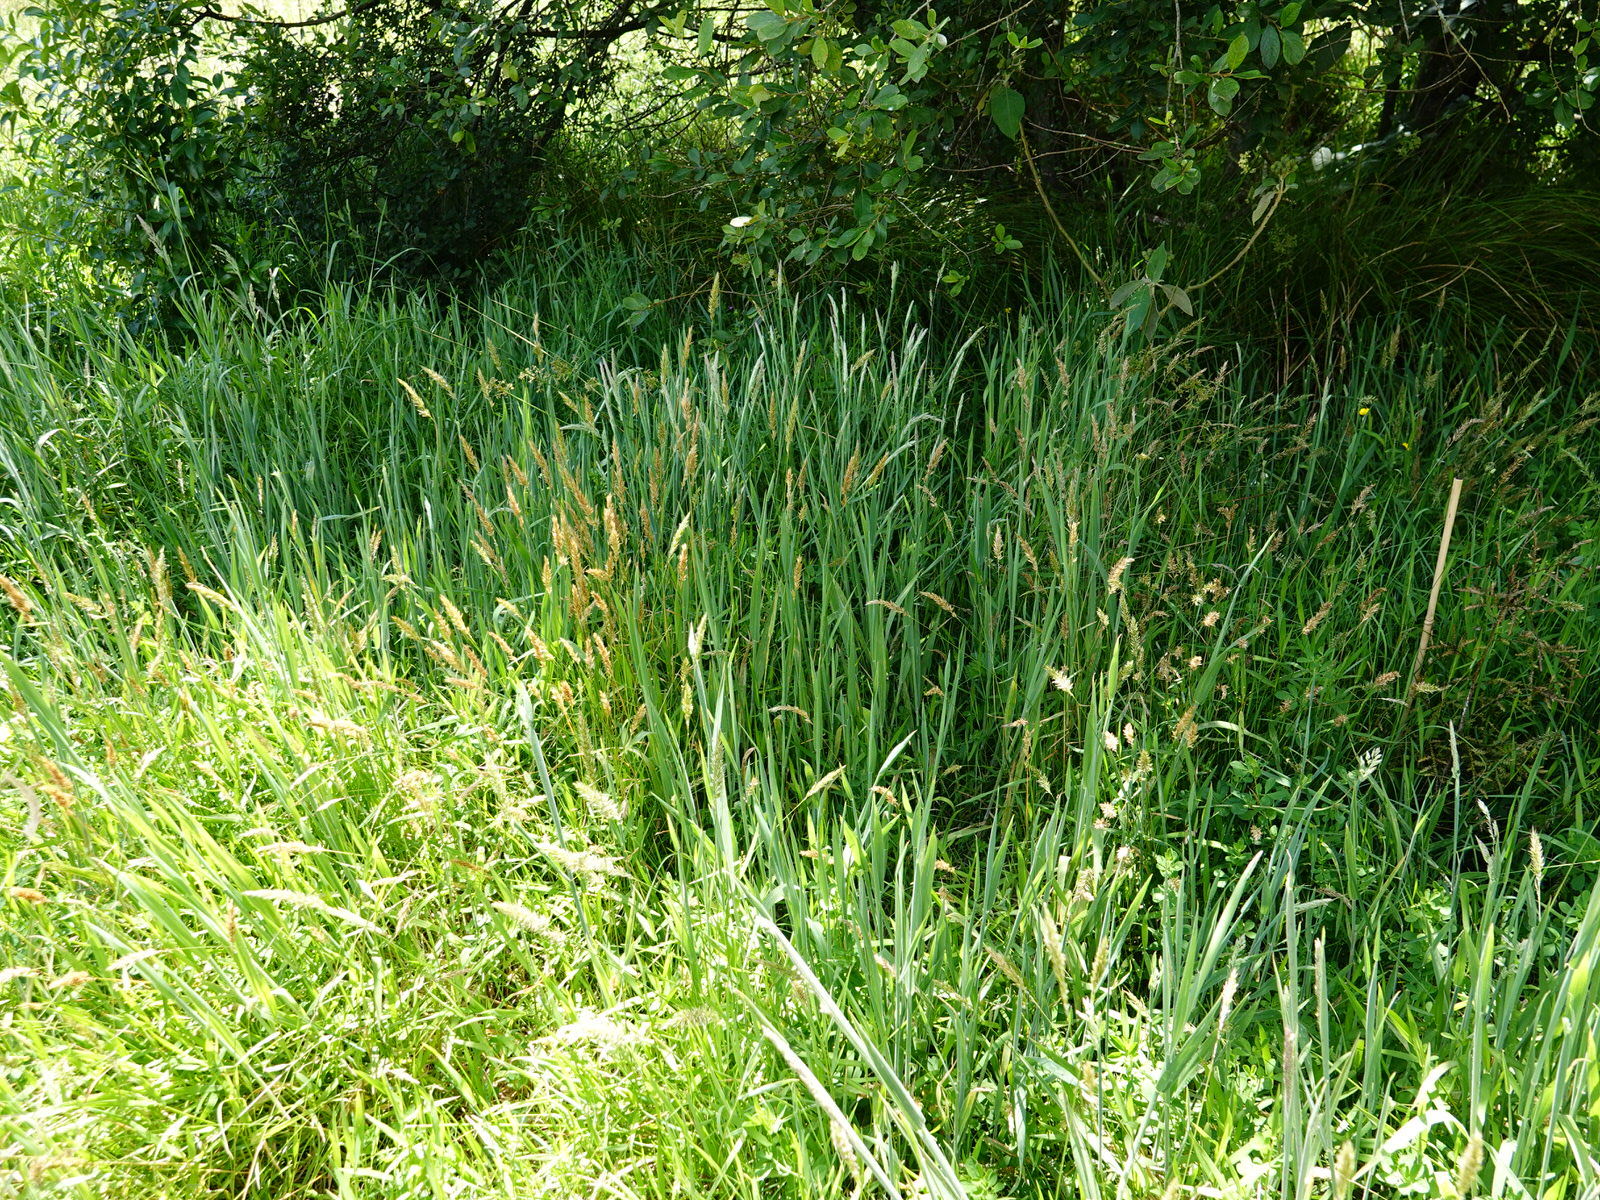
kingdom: Plantae
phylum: Tracheophyta
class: Liliopsida
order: Poales
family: Poaceae
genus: Anthoxanthum
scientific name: Anthoxanthum odoratum
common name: Sweet vernalgrass
